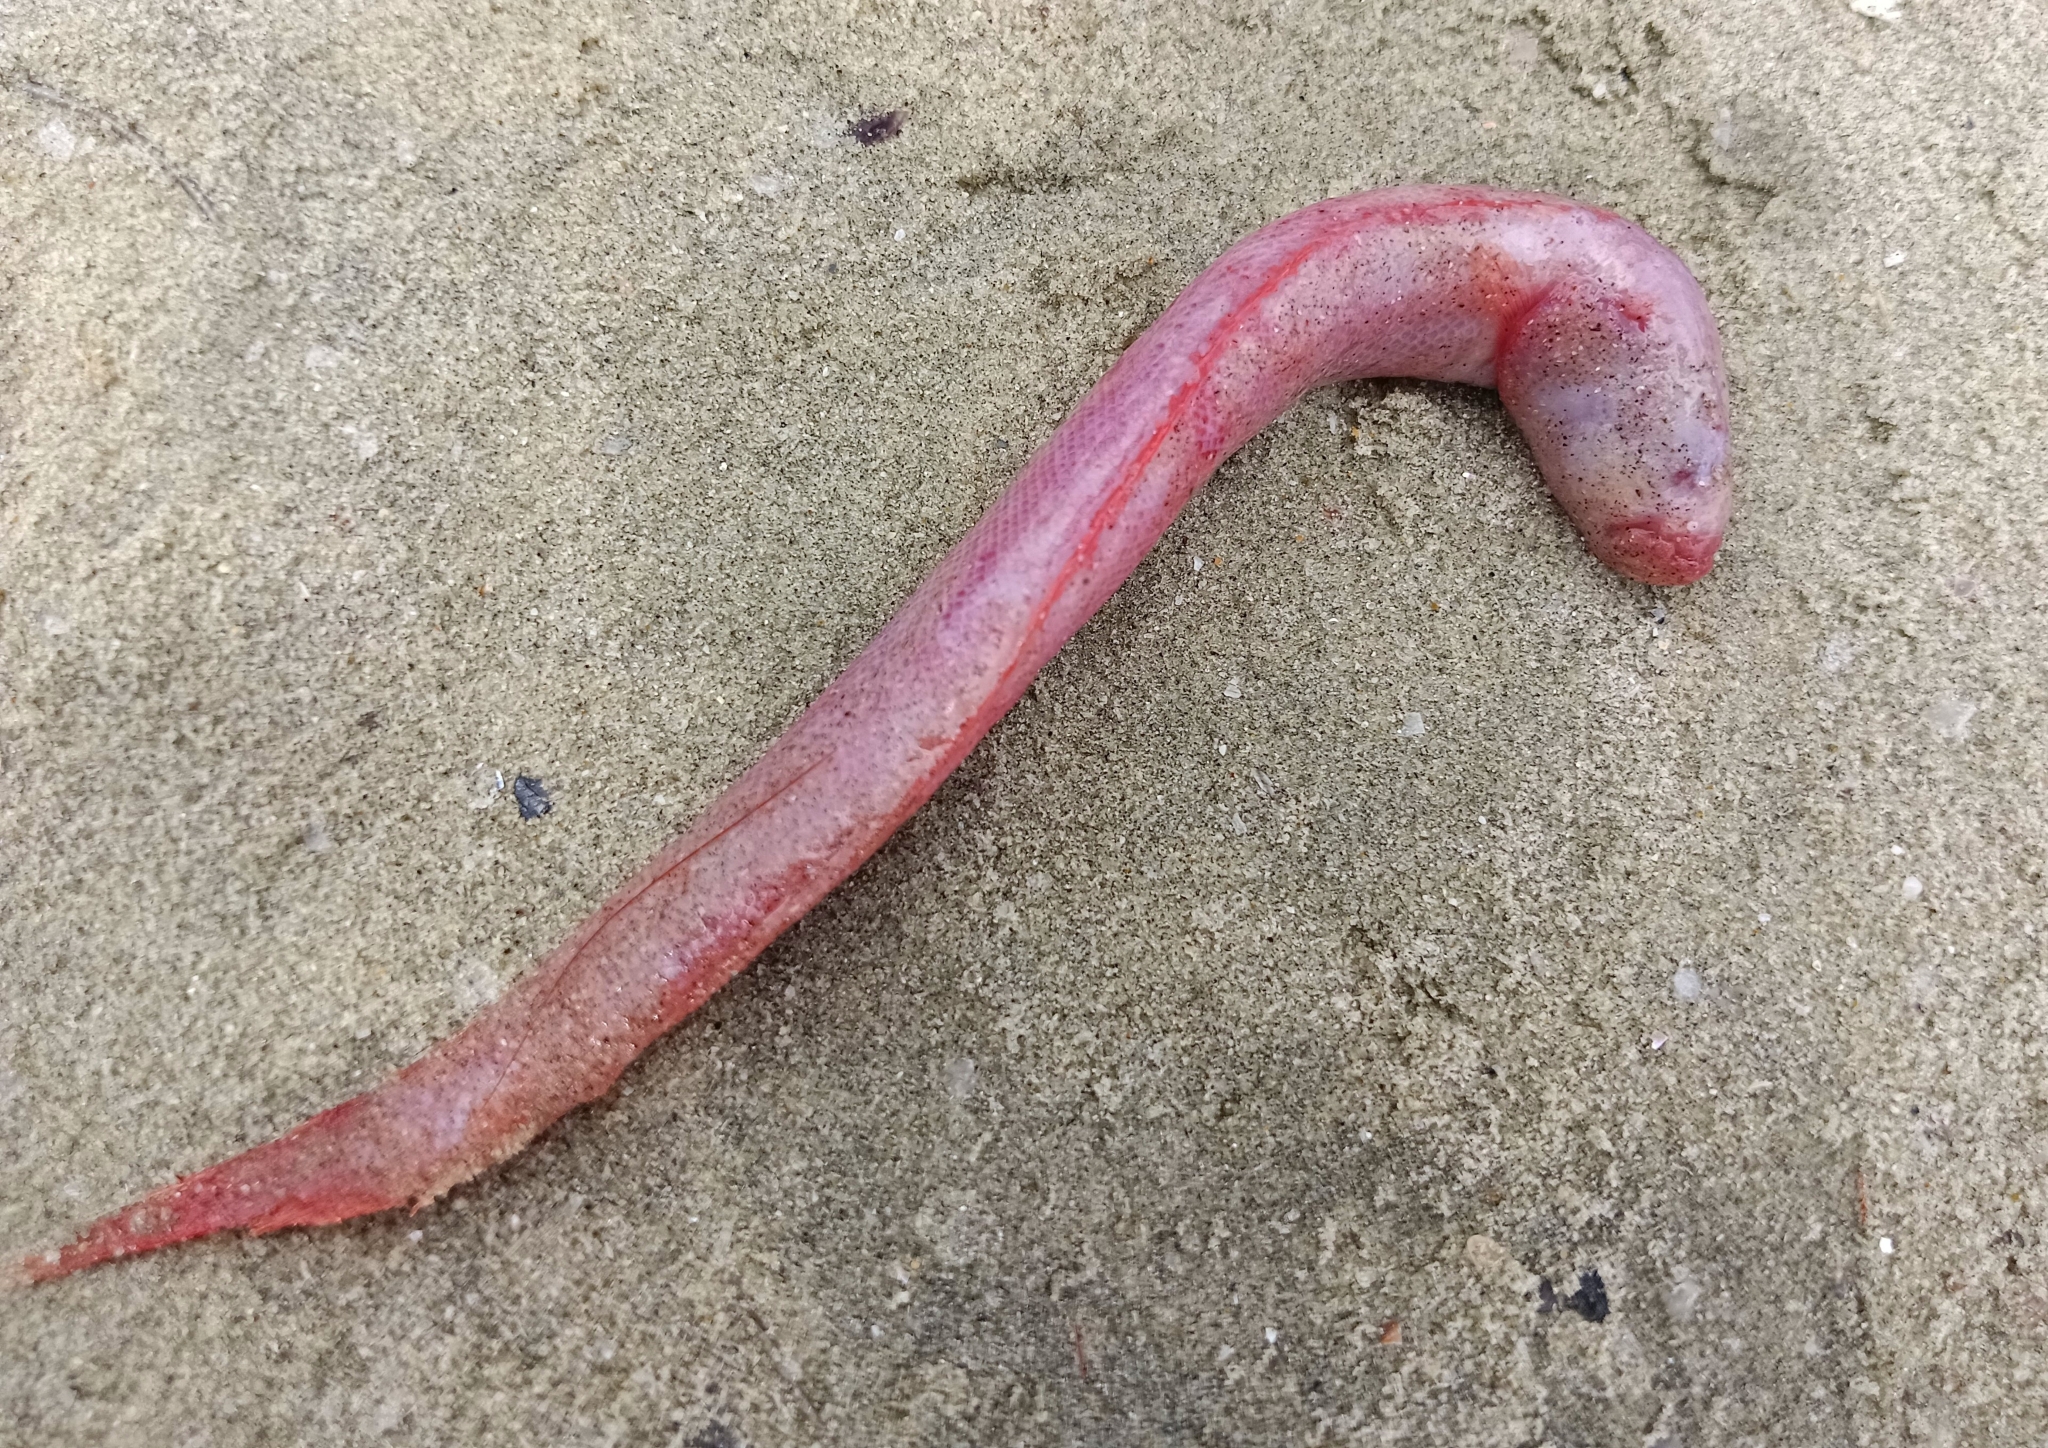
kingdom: Animalia
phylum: Chordata
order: Perciformes
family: Gobiidae
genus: Trypauchen
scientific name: Trypauchen vagina
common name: Burrowing goby
